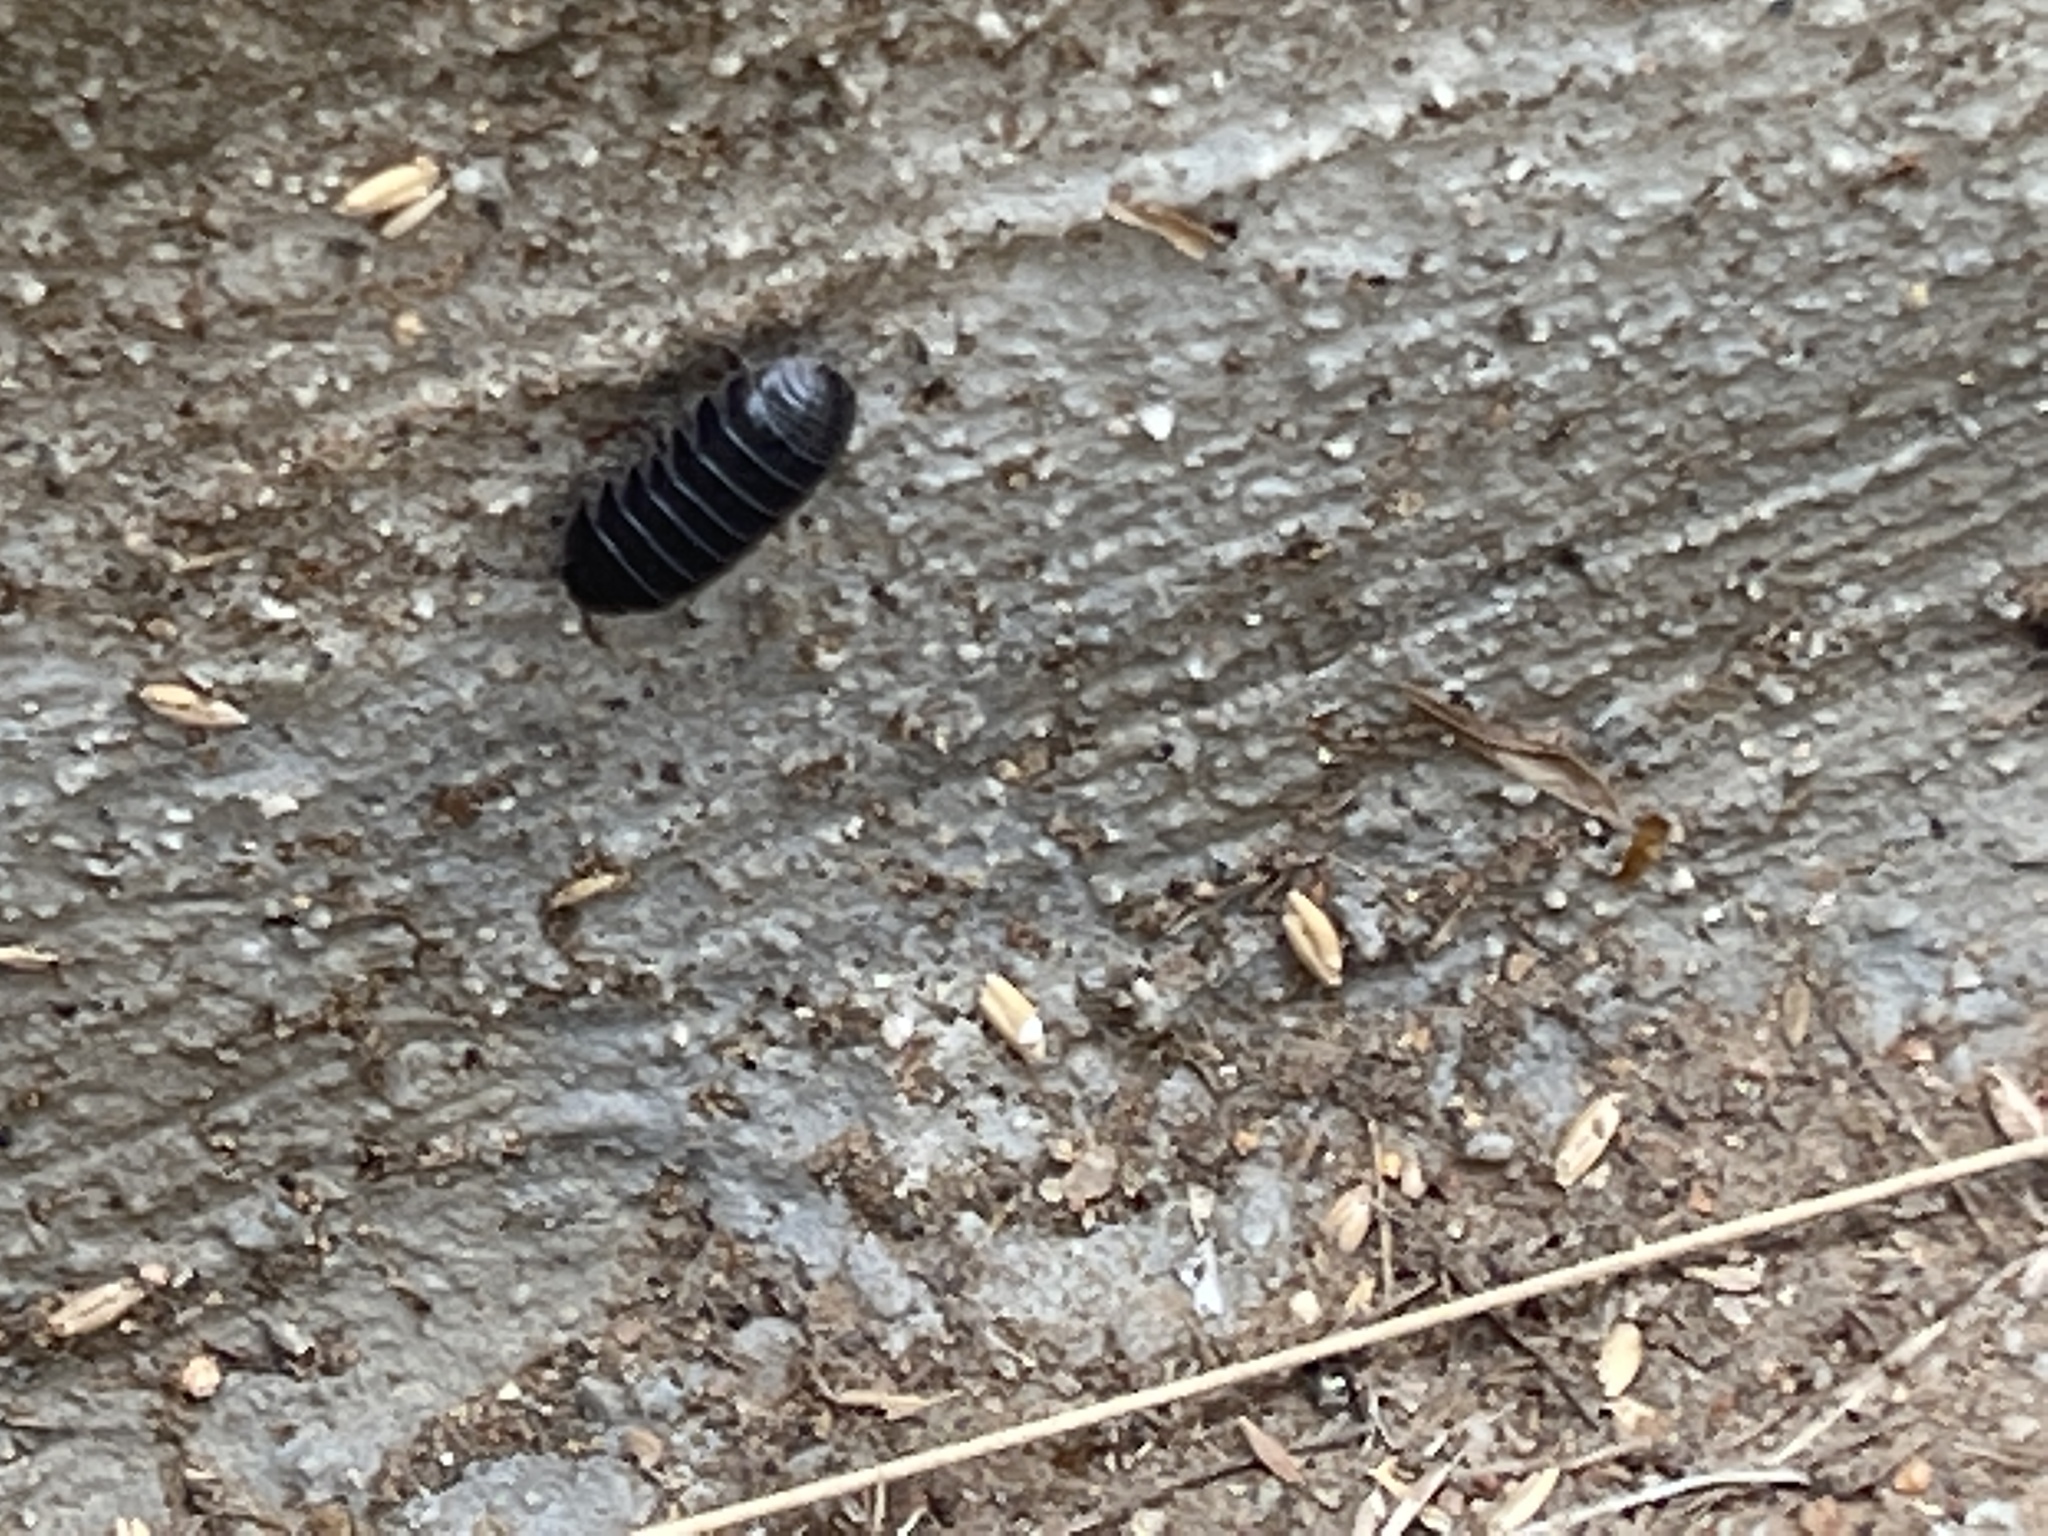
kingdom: Animalia
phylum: Arthropoda
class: Malacostraca
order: Isopoda
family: Armadillidiidae
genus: Armadillidium
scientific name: Armadillidium vulgare
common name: Common pill woodlouse
